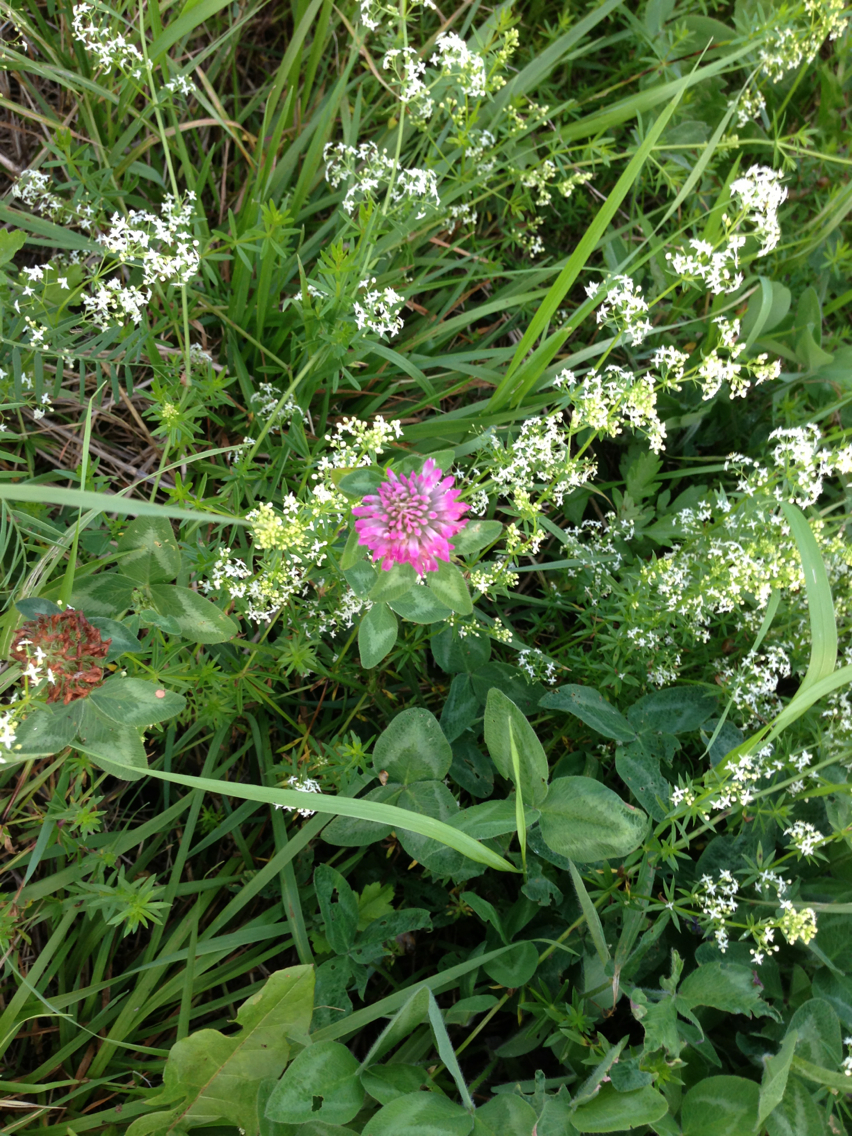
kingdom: Plantae
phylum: Tracheophyta
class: Magnoliopsida
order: Fabales
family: Fabaceae
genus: Trifolium
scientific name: Trifolium pratense
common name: Red clover
